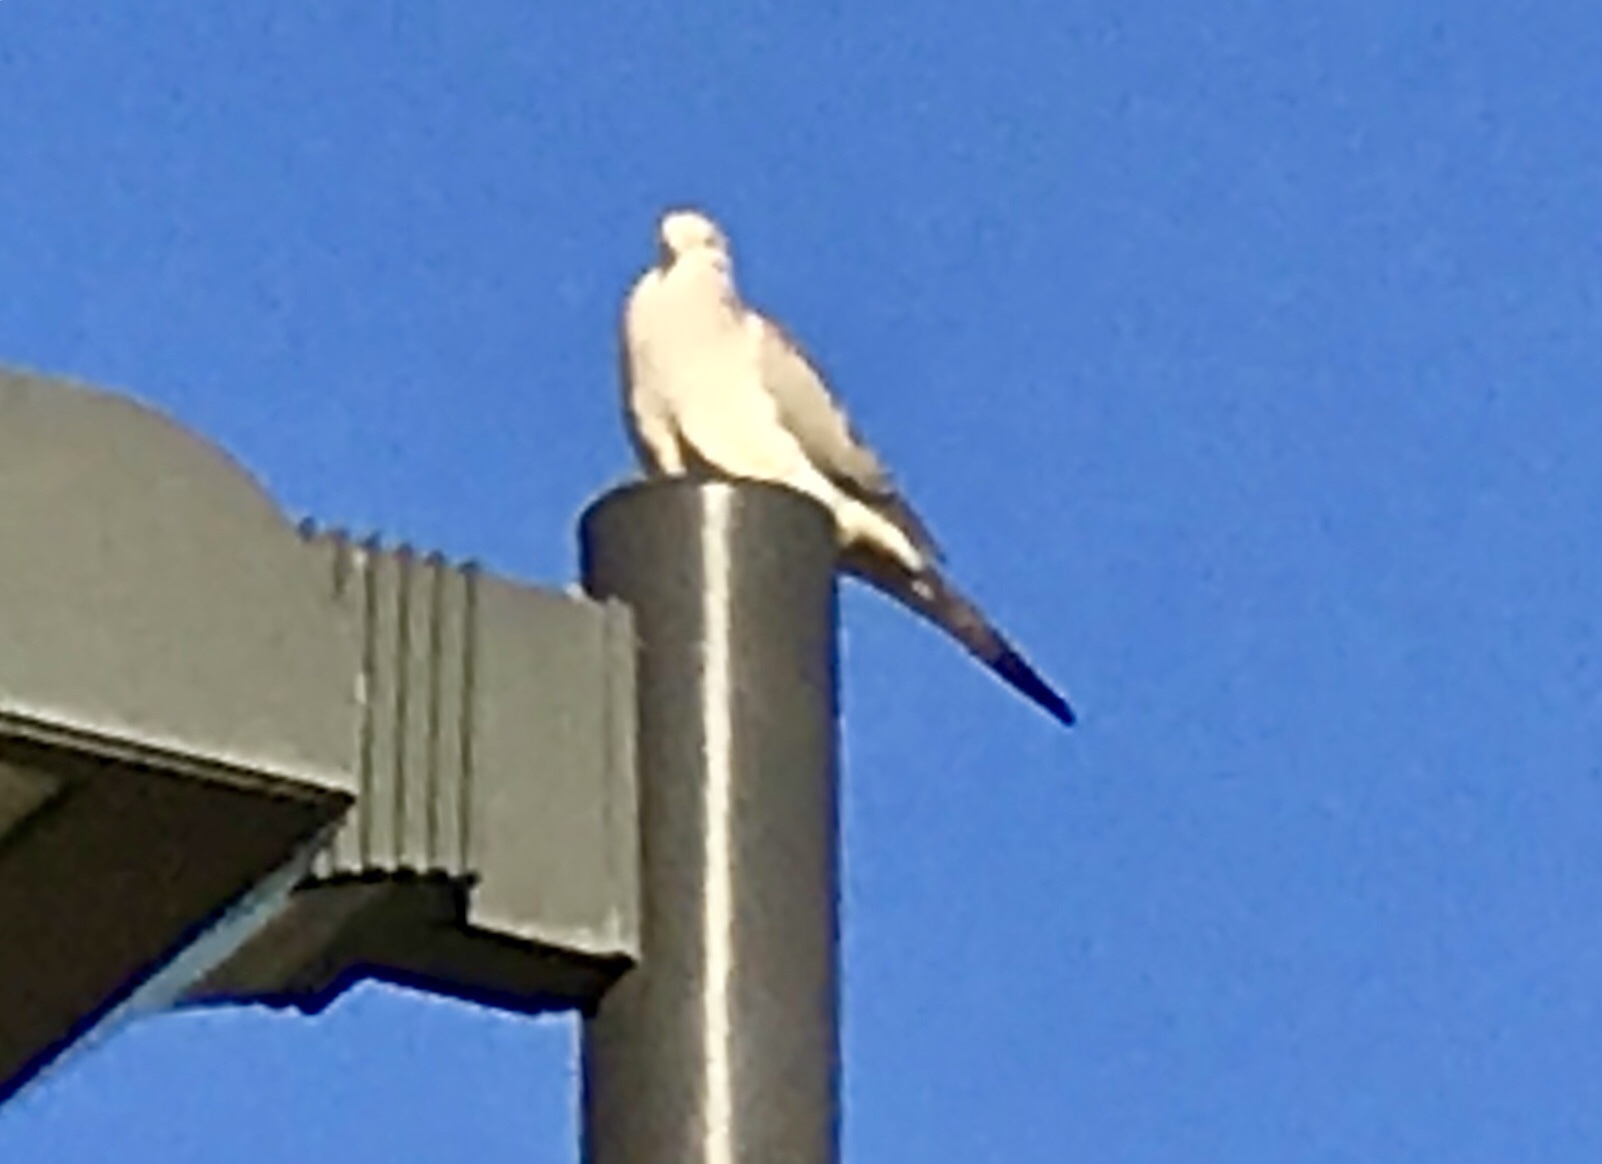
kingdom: Animalia
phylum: Chordata
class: Aves
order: Columbiformes
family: Columbidae
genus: Zenaida
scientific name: Zenaida macroura
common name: Mourning dove
